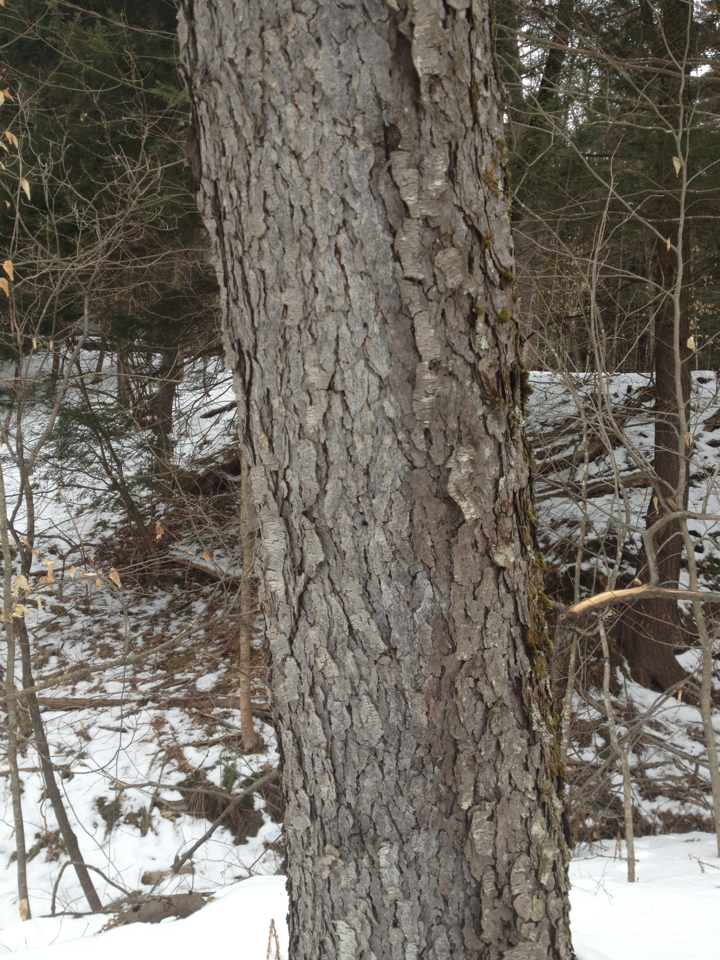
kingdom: Plantae
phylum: Tracheophyta
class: Magnoliopsida
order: Rosales
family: Rosaceae
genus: Prunus
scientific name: Prunus serotina
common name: Black cherry
